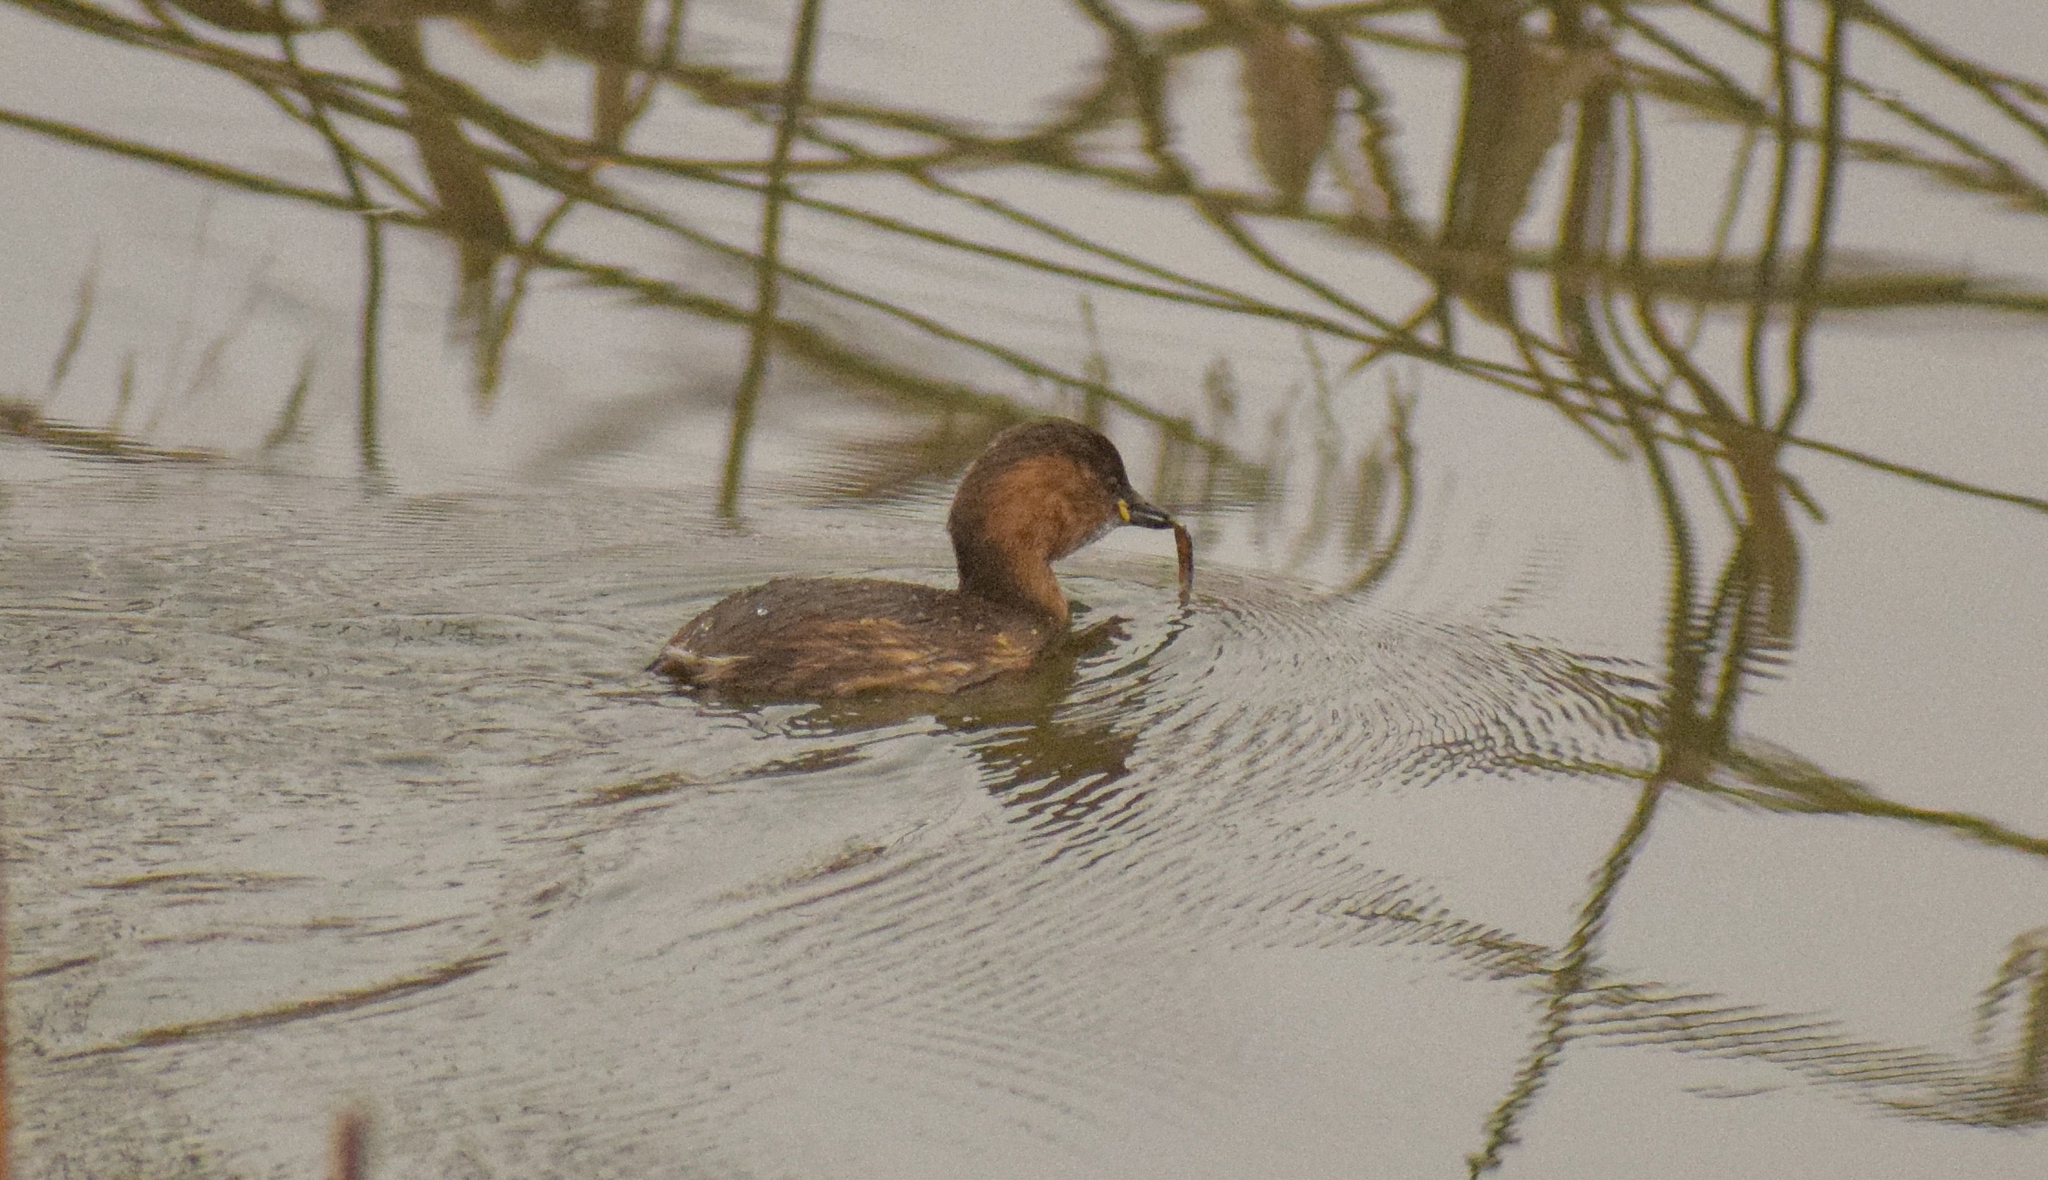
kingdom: Animalia
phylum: Chordata
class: Aves
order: Podicipediformes
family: Podicipedidae
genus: Tachybaptus
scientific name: Tachybaptus ruficollis
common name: Little grebe
